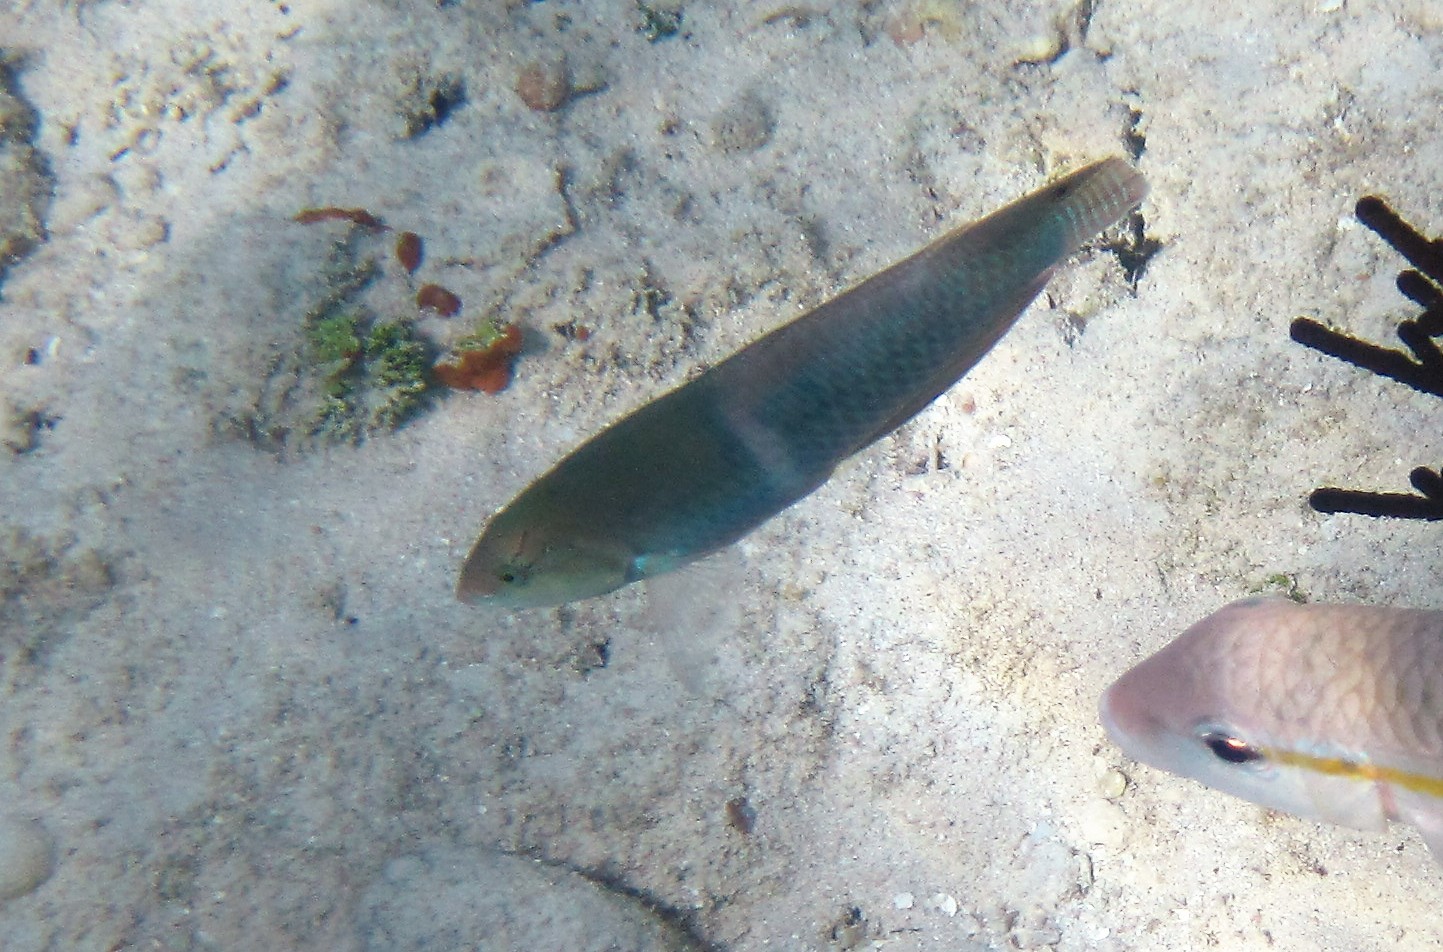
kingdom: Animalia
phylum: Chordata
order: Perciformes
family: Labridae
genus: Halichoeres
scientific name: Halichoeres garnoti
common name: Yellowhead wrasse
